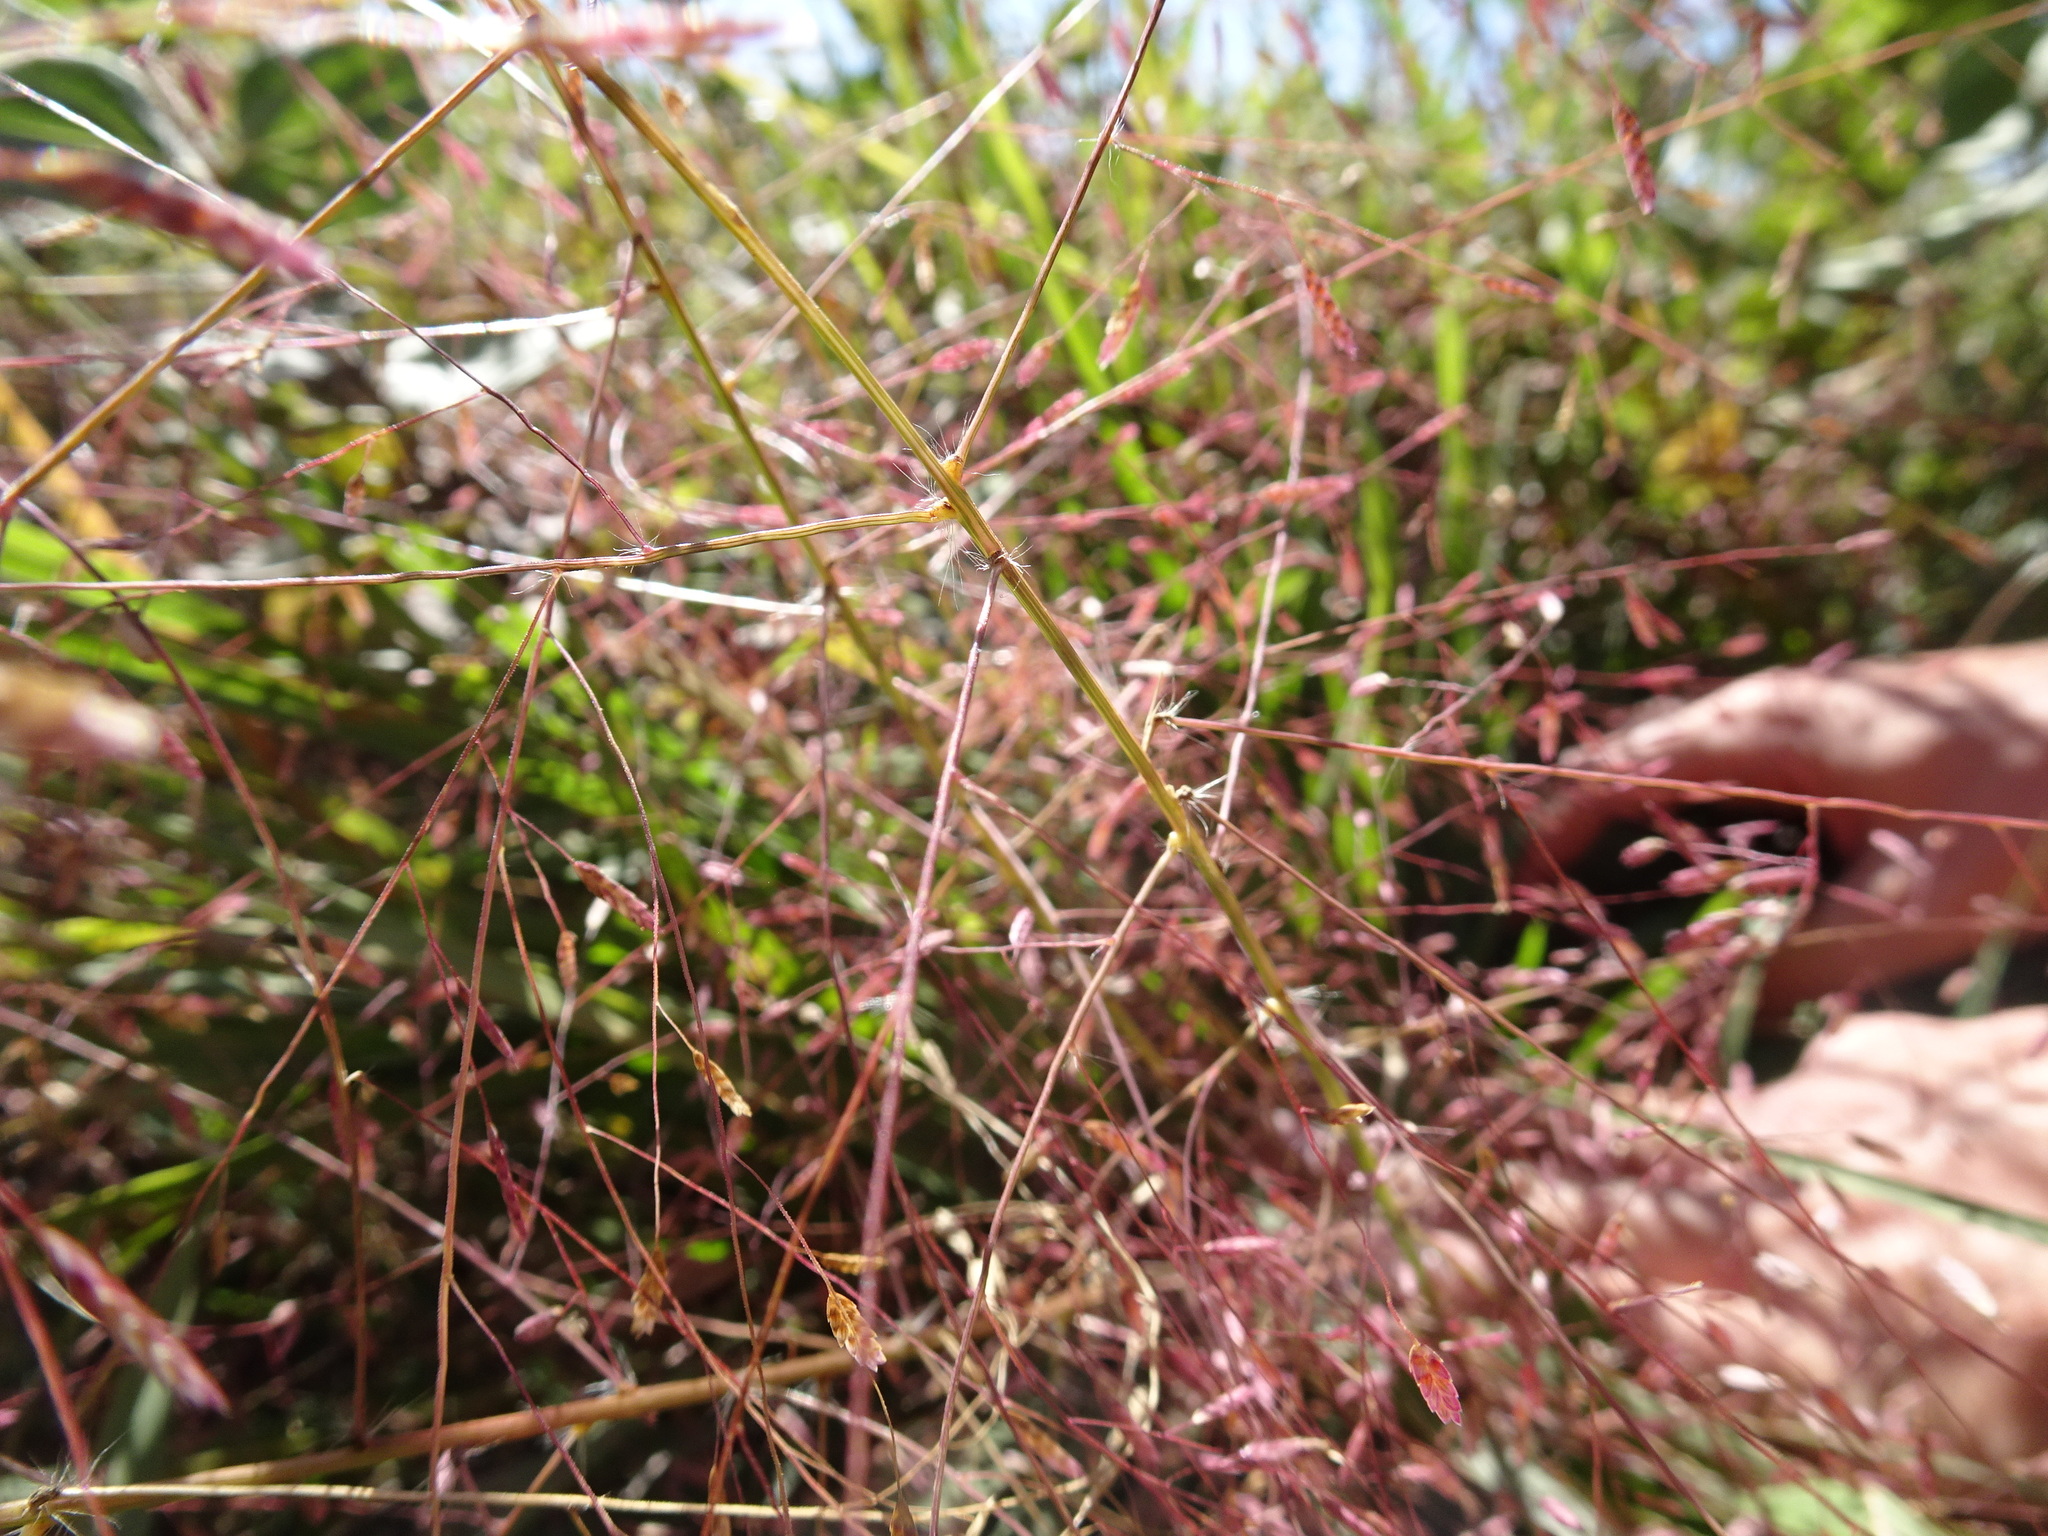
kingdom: Plantae
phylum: Tracheophyta
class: Liliopsida
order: Poales
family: Poaceae
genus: Eragrostis
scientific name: Eragrostis spectabilis
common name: Petticoat-climber
